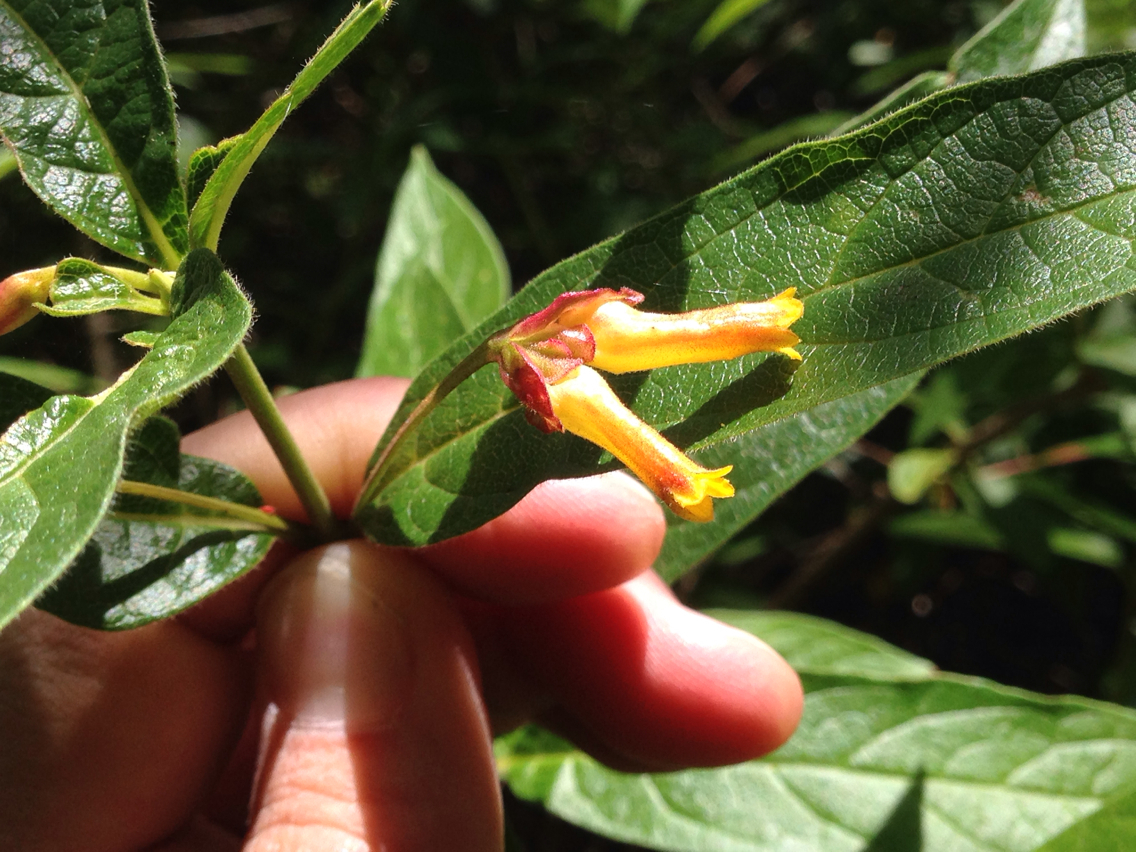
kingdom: Plantae
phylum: Tracheophyta
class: Magnoliopsida
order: Dipsacales
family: Caprifoliaceae
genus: Lonicera
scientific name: Lonicera involucrata
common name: Californian honeysuckle
